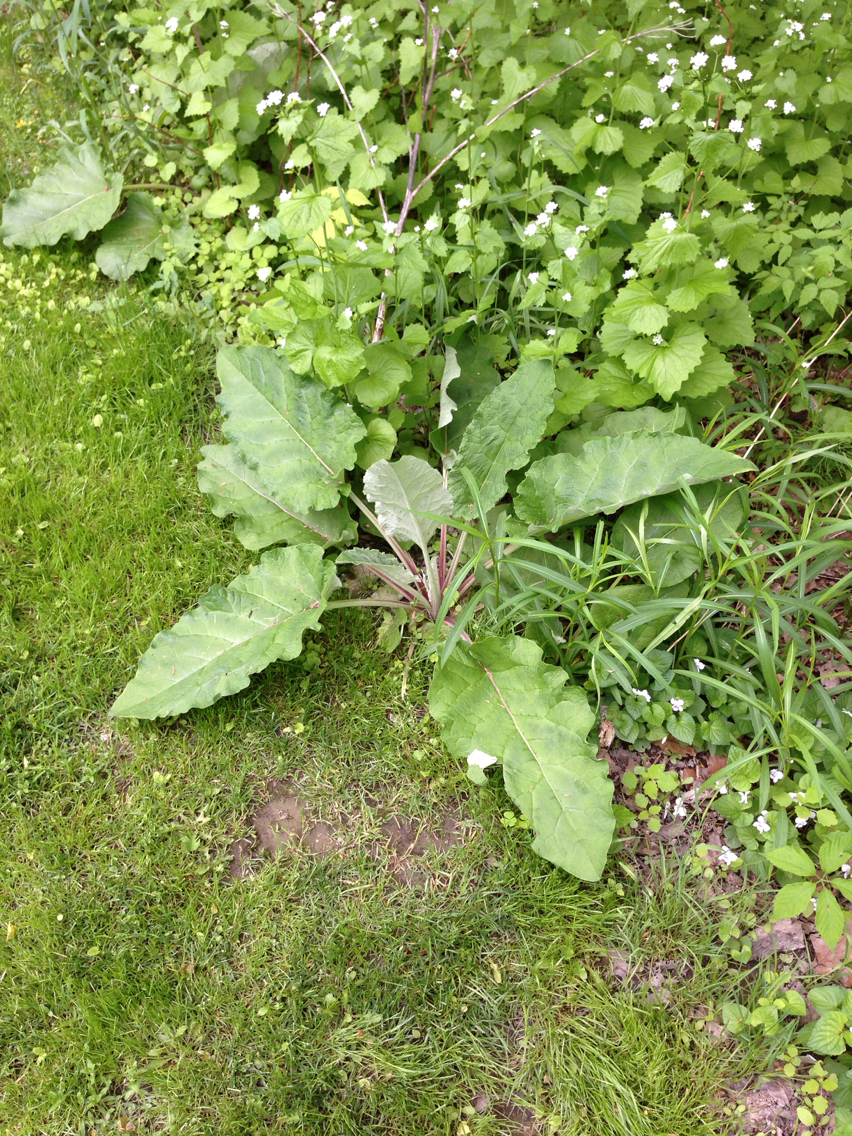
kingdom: Plantae
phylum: Tracheophyta
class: Magnoliopsida
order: Asterales
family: Asteraceae
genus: Arctium
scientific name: Arctium
